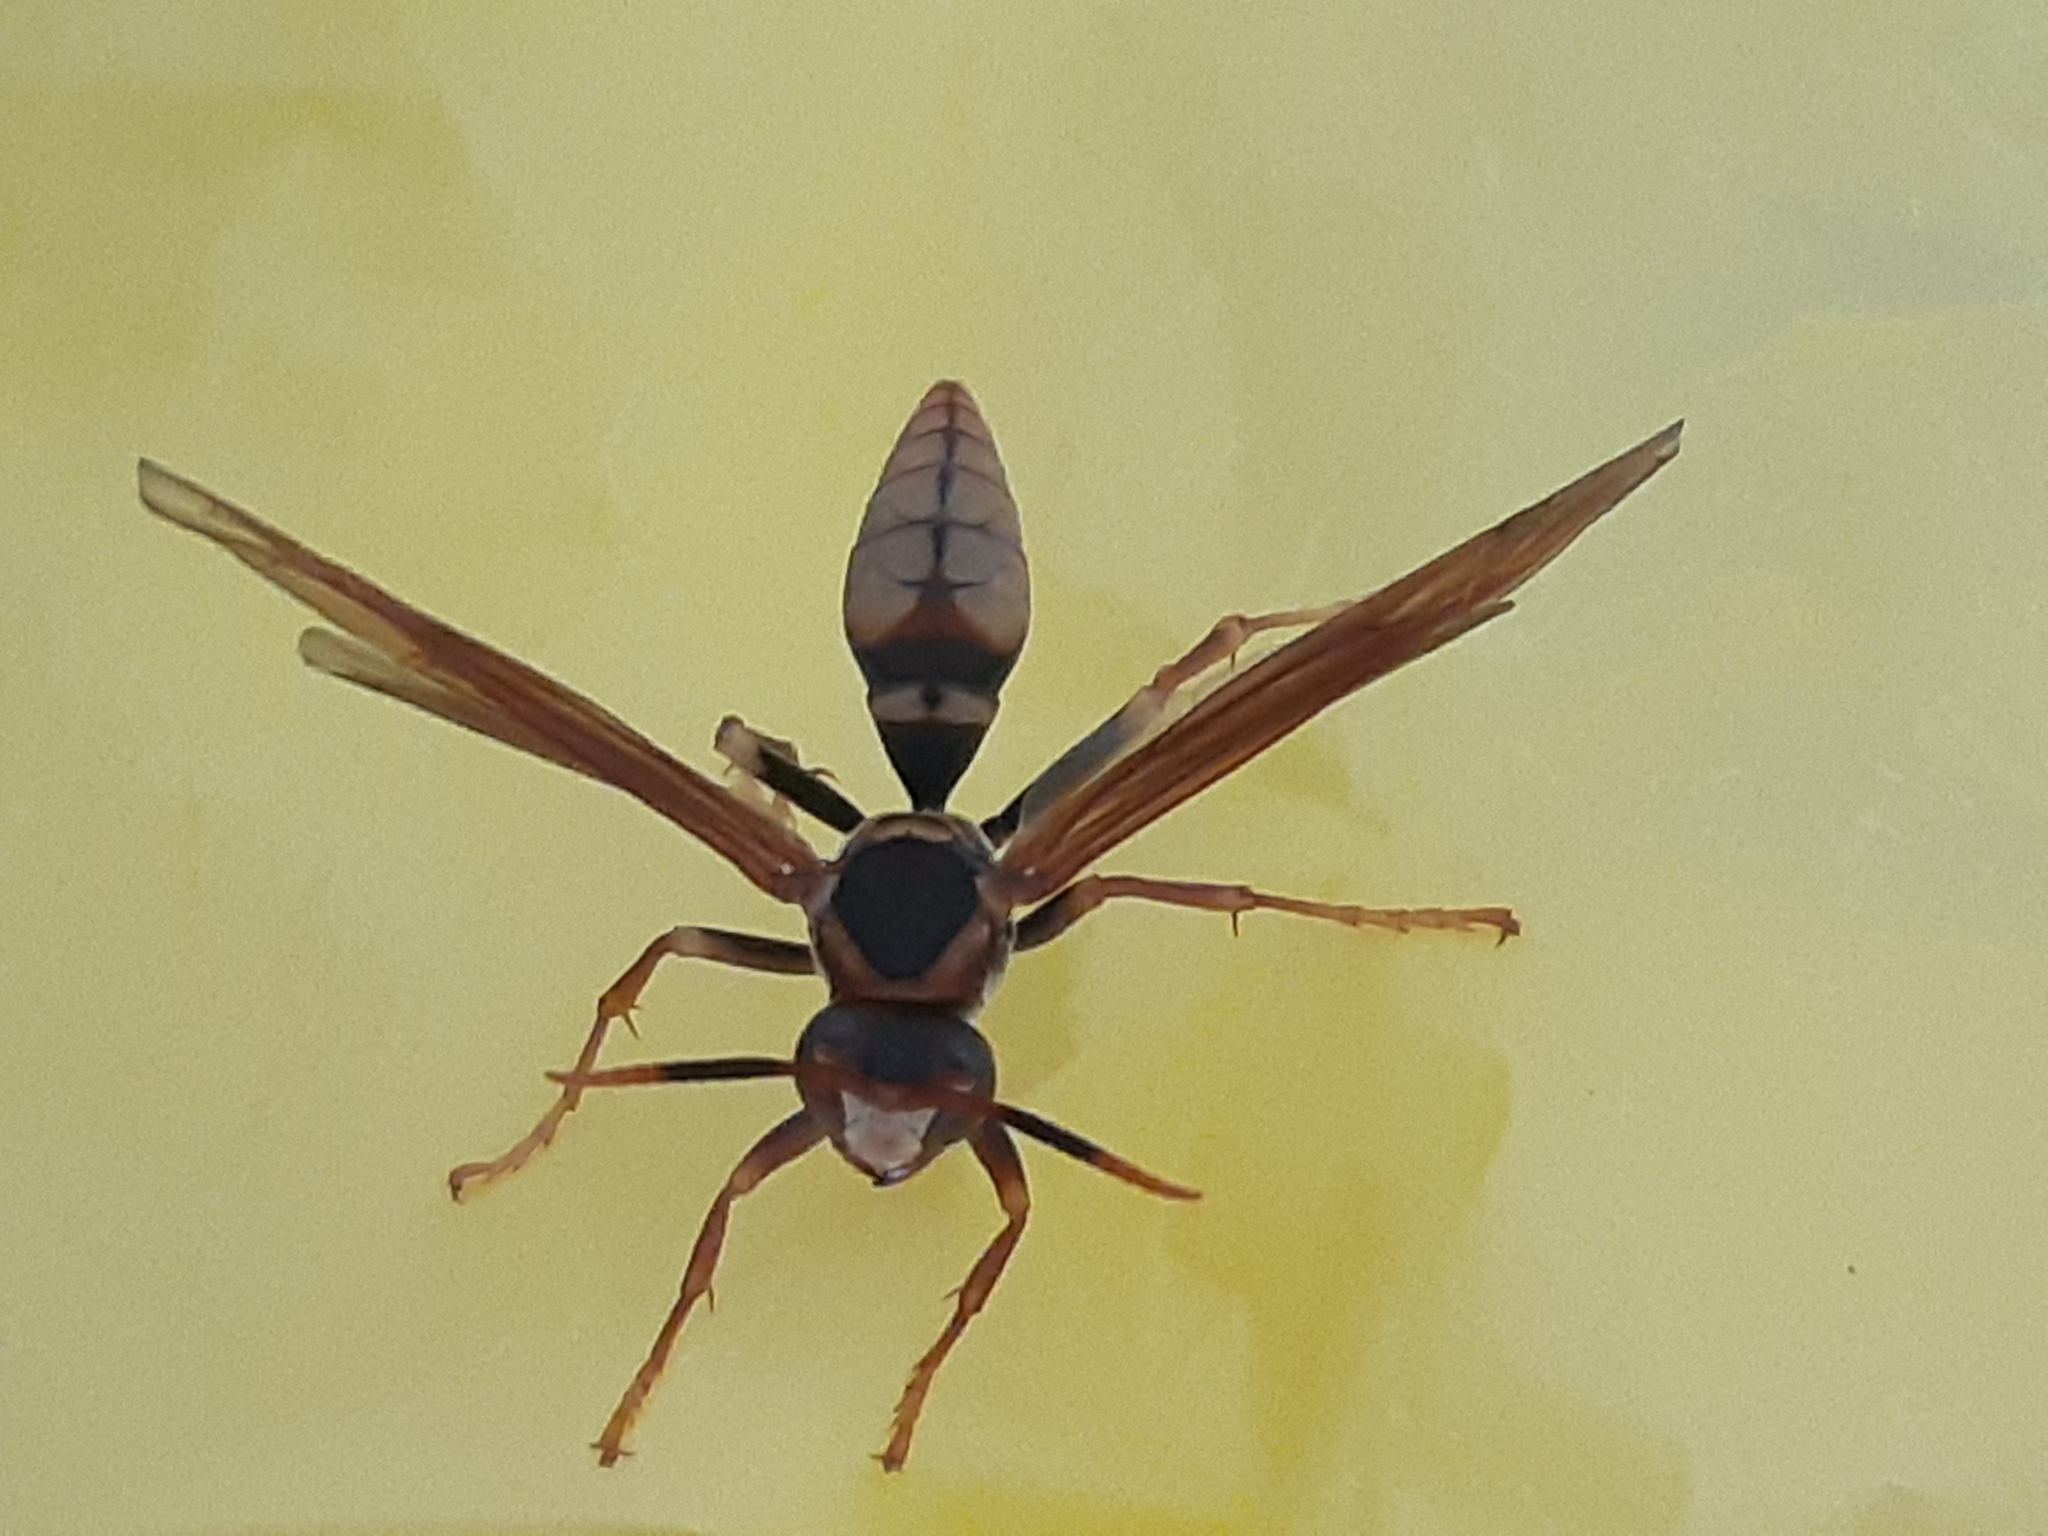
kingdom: Animalia
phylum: Arthropoda
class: Insecta
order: Hymenoptera
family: Eumenidae
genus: Polistes
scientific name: Polistes cavapytiformis
